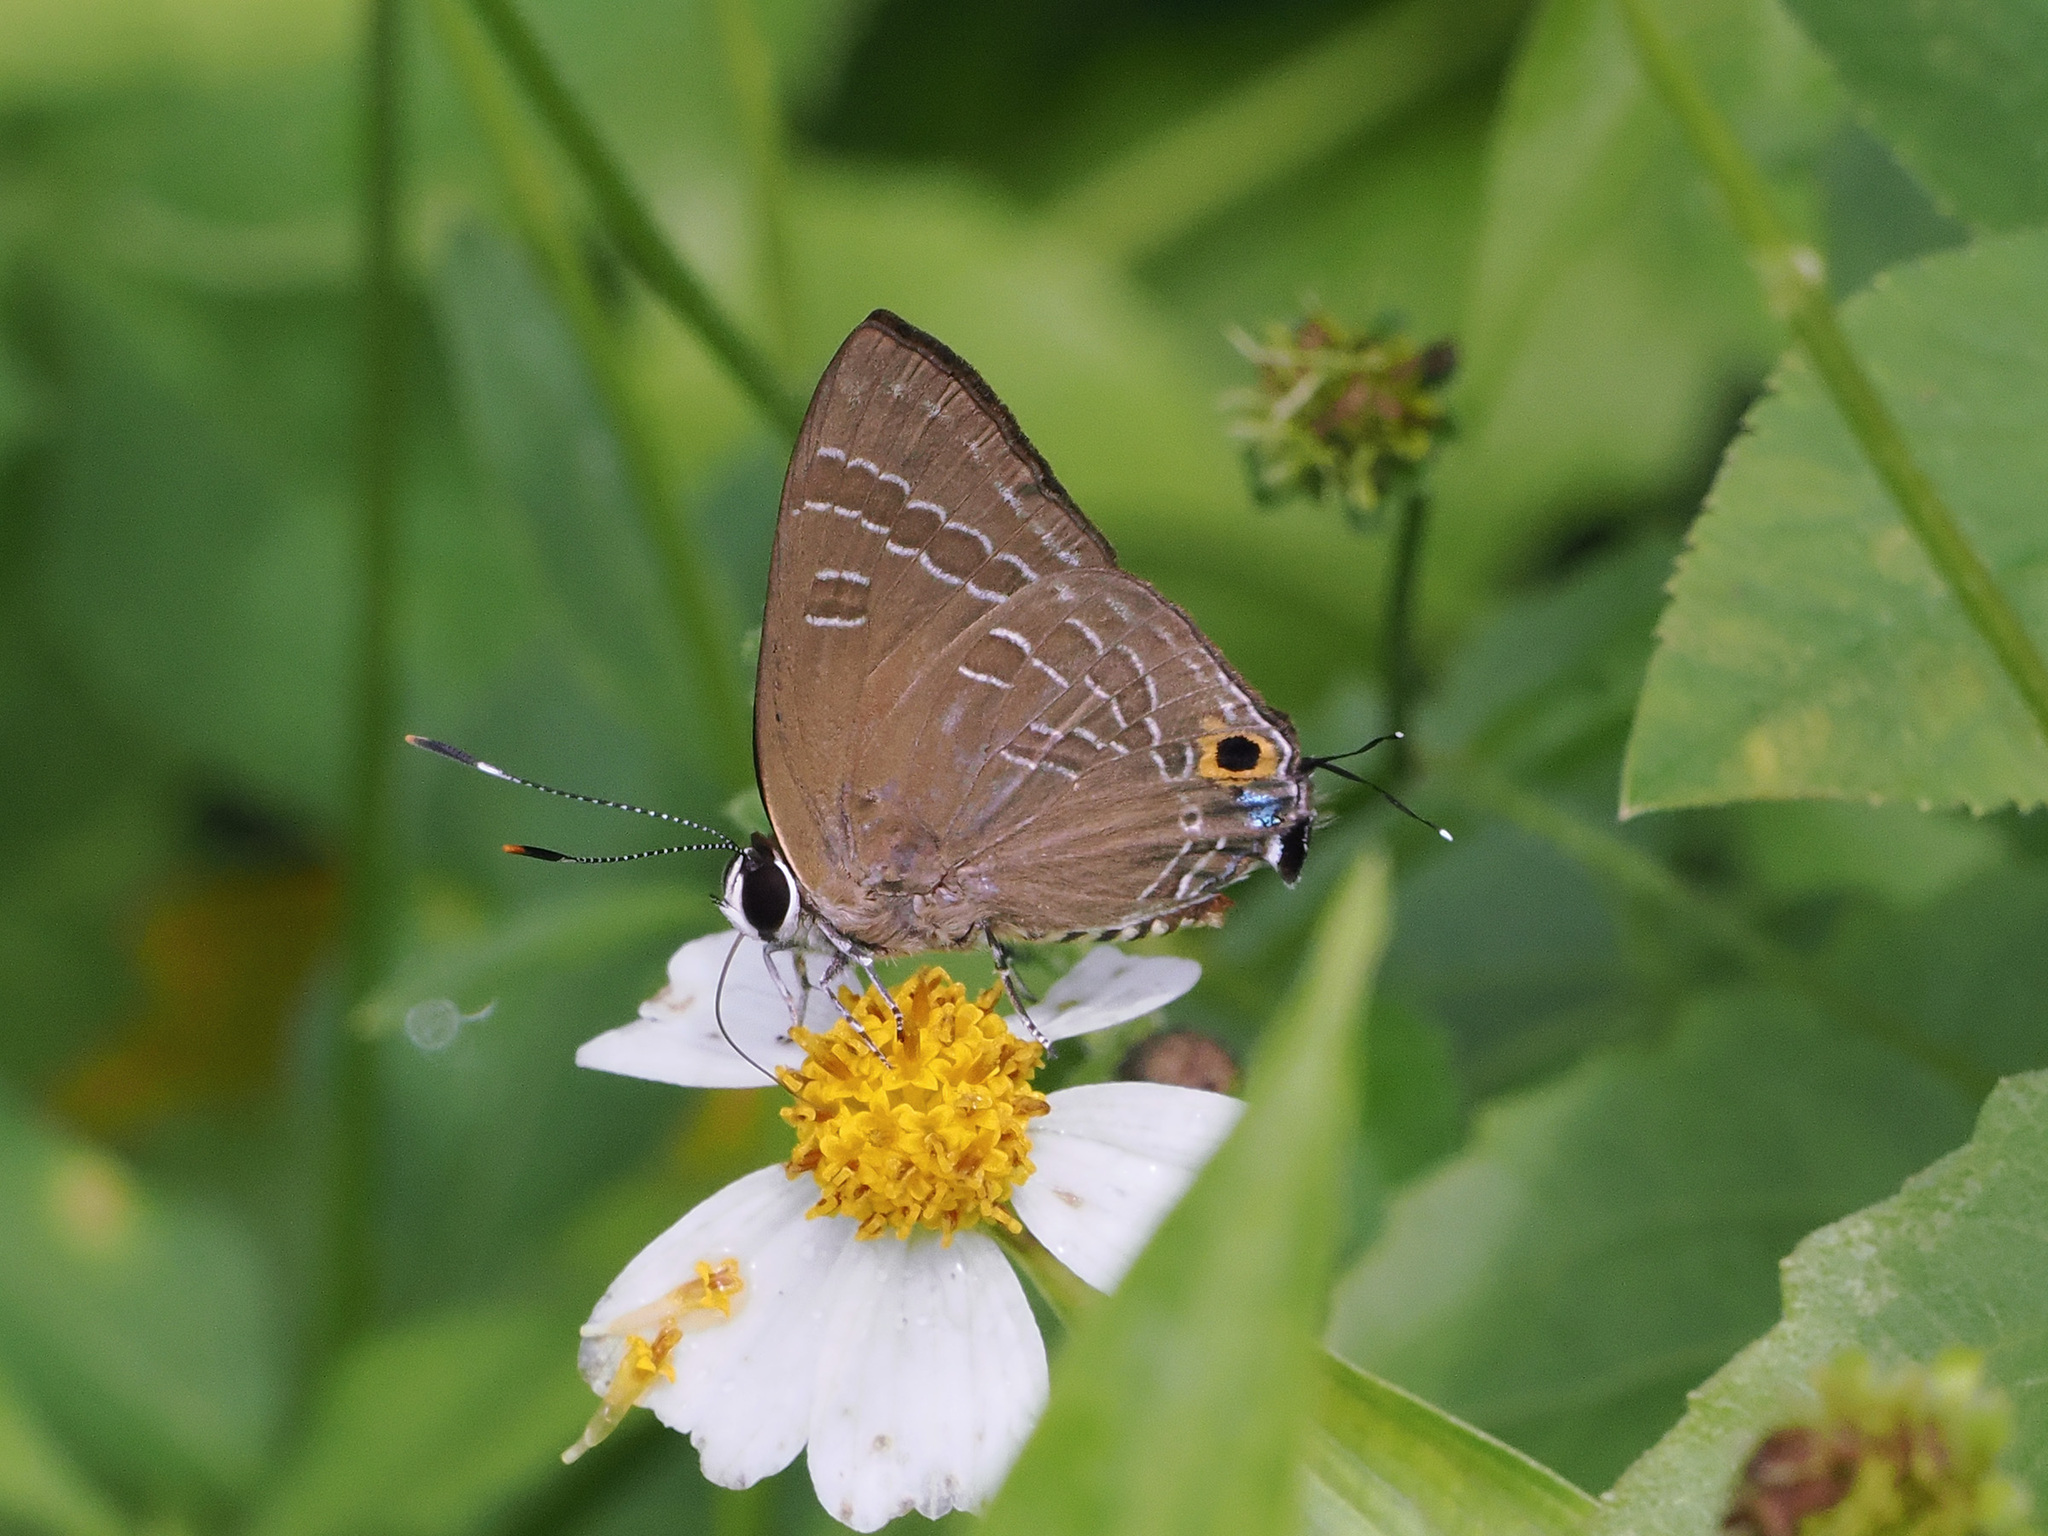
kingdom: Animalia
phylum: Arthropoda
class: Insecta
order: Lepidoptera
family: Lycaenidae
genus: Deudorix
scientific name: Deudorix epijarbas
